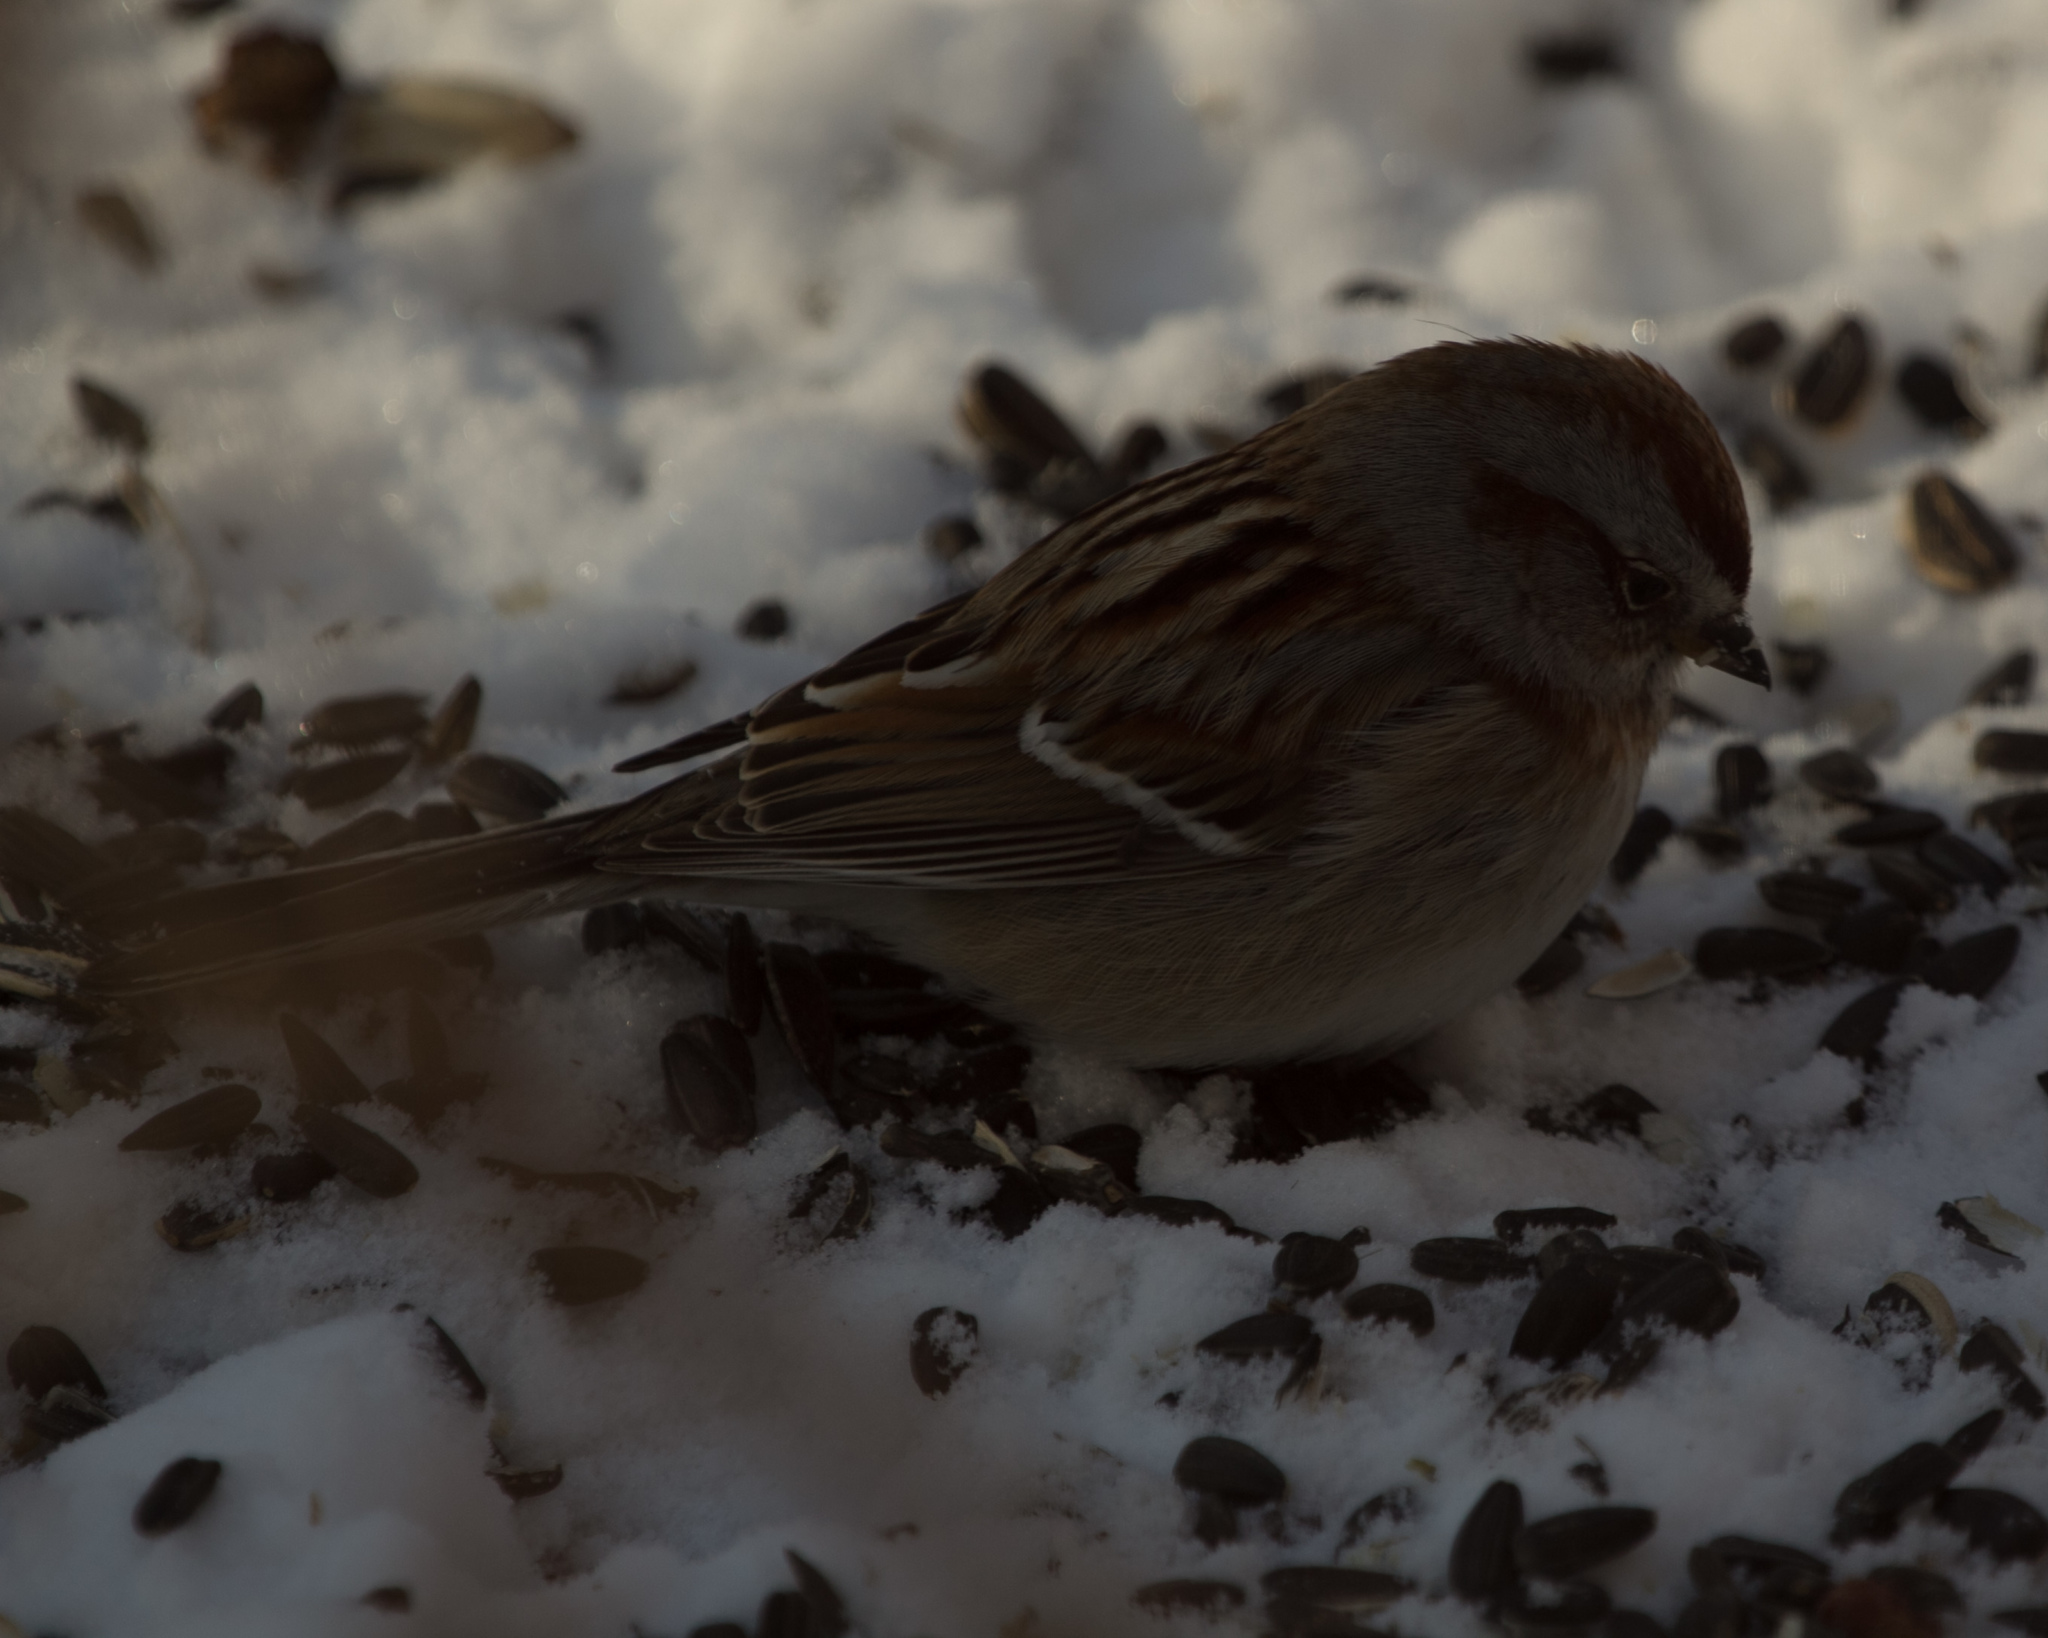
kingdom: Animalia
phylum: Chordata
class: Aves
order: Passeriformes
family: Passerellidae
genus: Spizelloides
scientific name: Spizelloides arborea
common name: American tree sparrow
